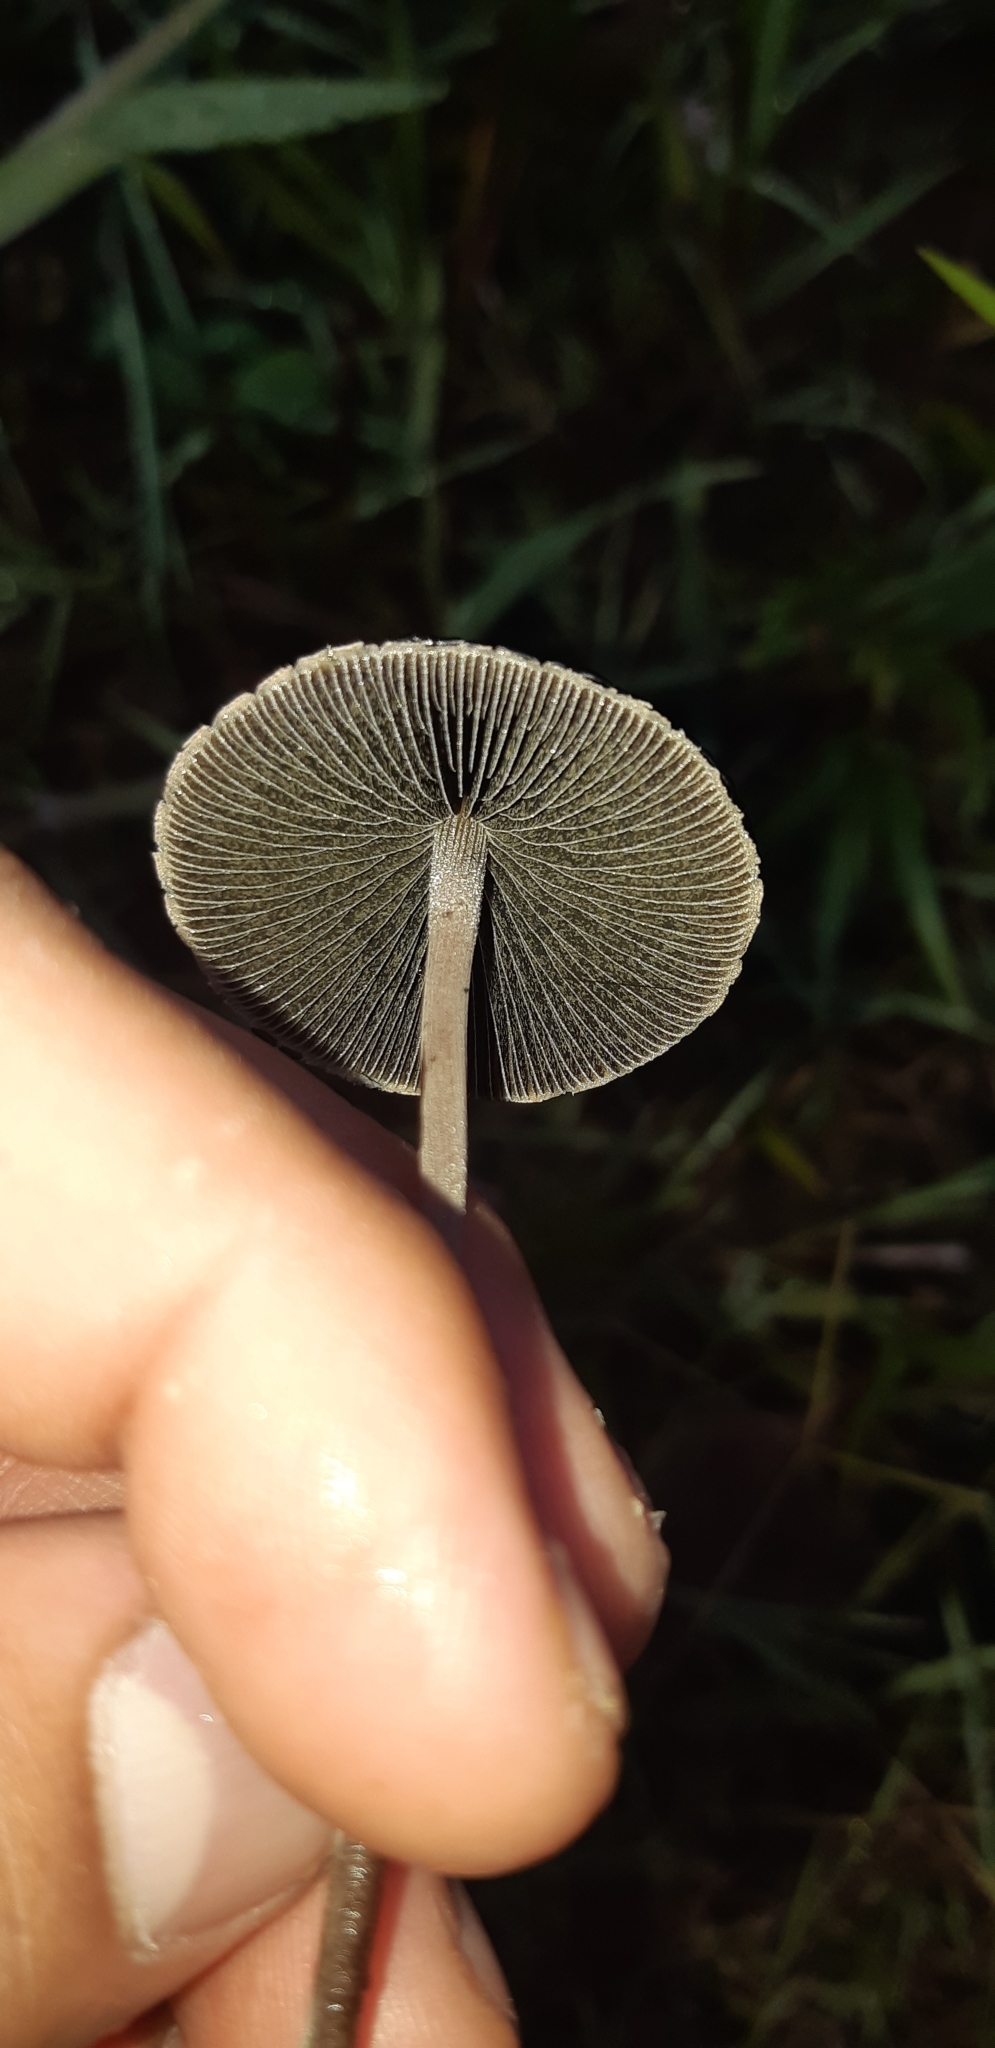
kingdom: Fungi
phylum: Basidiomycota
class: Agaricomycetes
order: Agaricales
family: Bolbitiaceae
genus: Panaeolus
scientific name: Panaeolus papilionaceus
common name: Petticoat mottlegill
